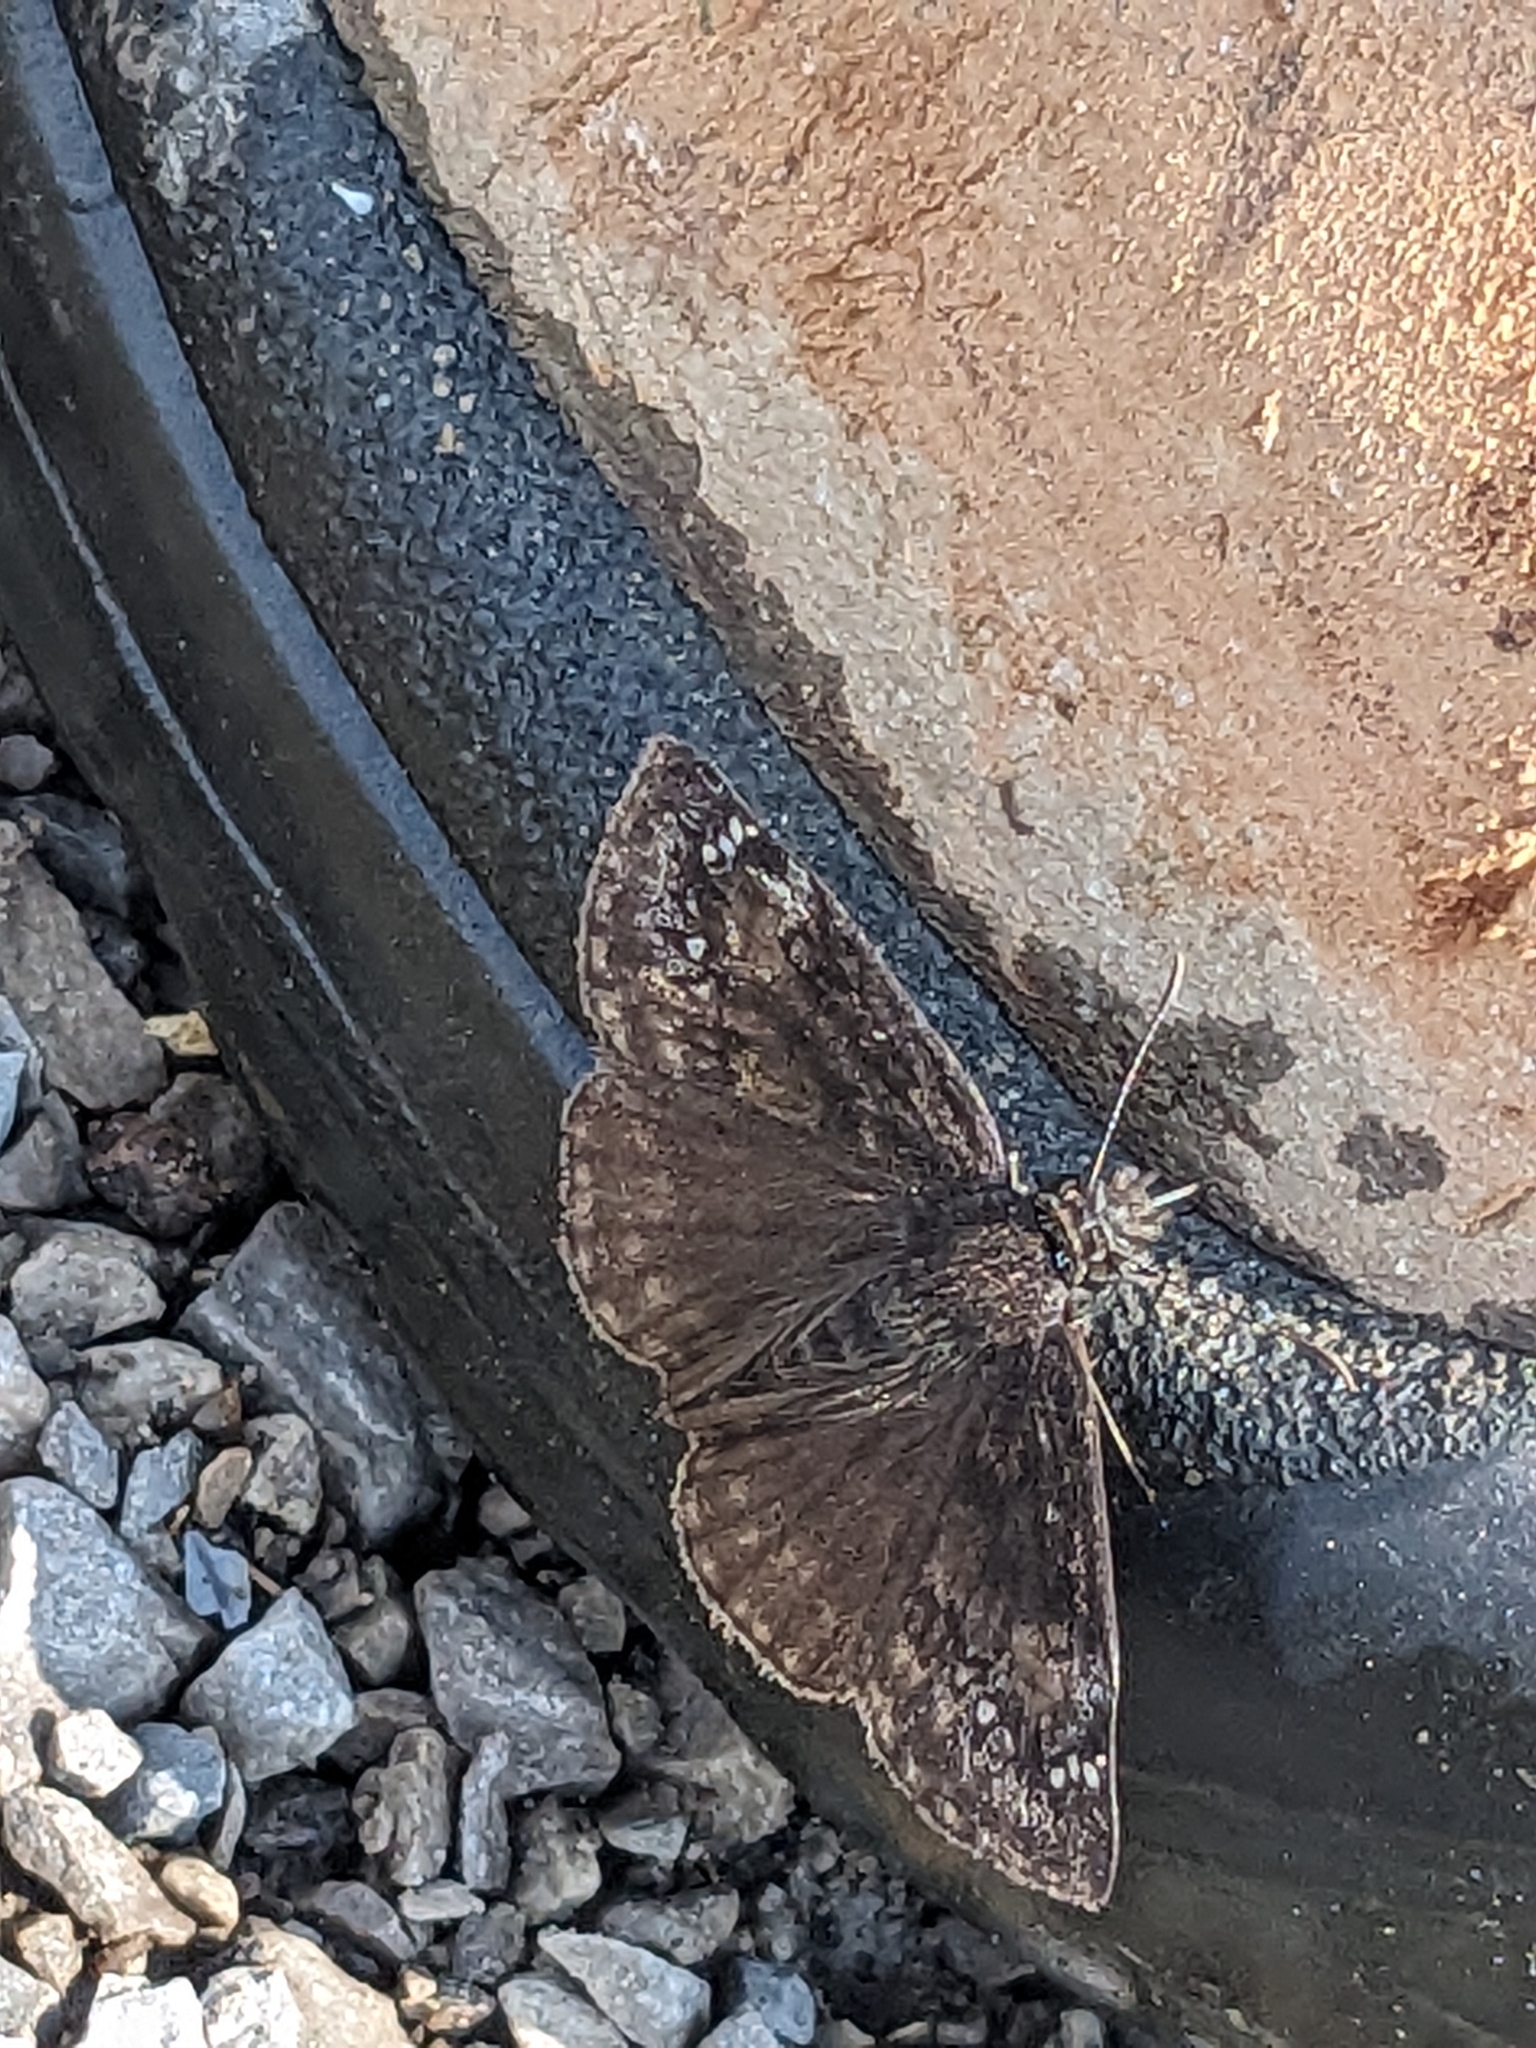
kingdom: Animalia
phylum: Arthropoda
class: Insecta
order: Lepidoptera
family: Hesperiidae
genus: Erynnis
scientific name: Erynnis baptisiae
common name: Wild indigo duskywing
